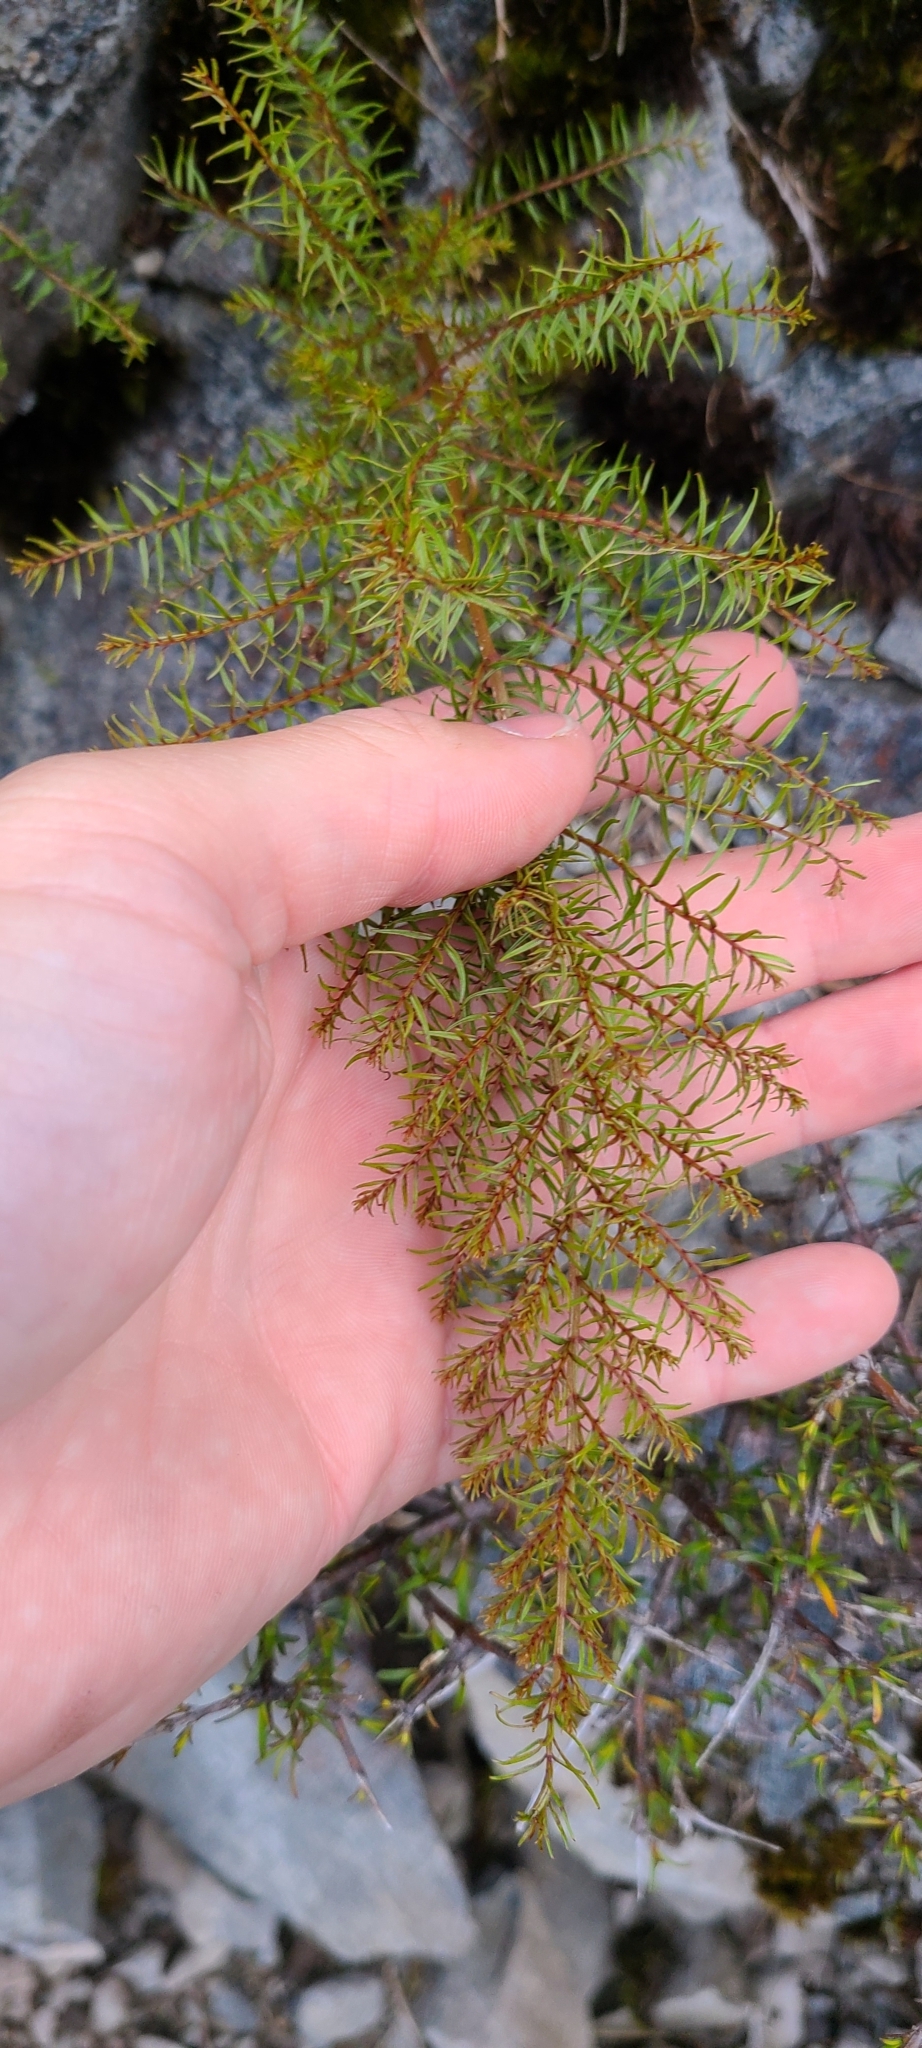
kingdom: Plantae
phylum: Tracheophyta
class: Magnoliopsida
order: Cucurbitales
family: Coriariaceae
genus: Coriaria
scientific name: Coriaria angustissima
